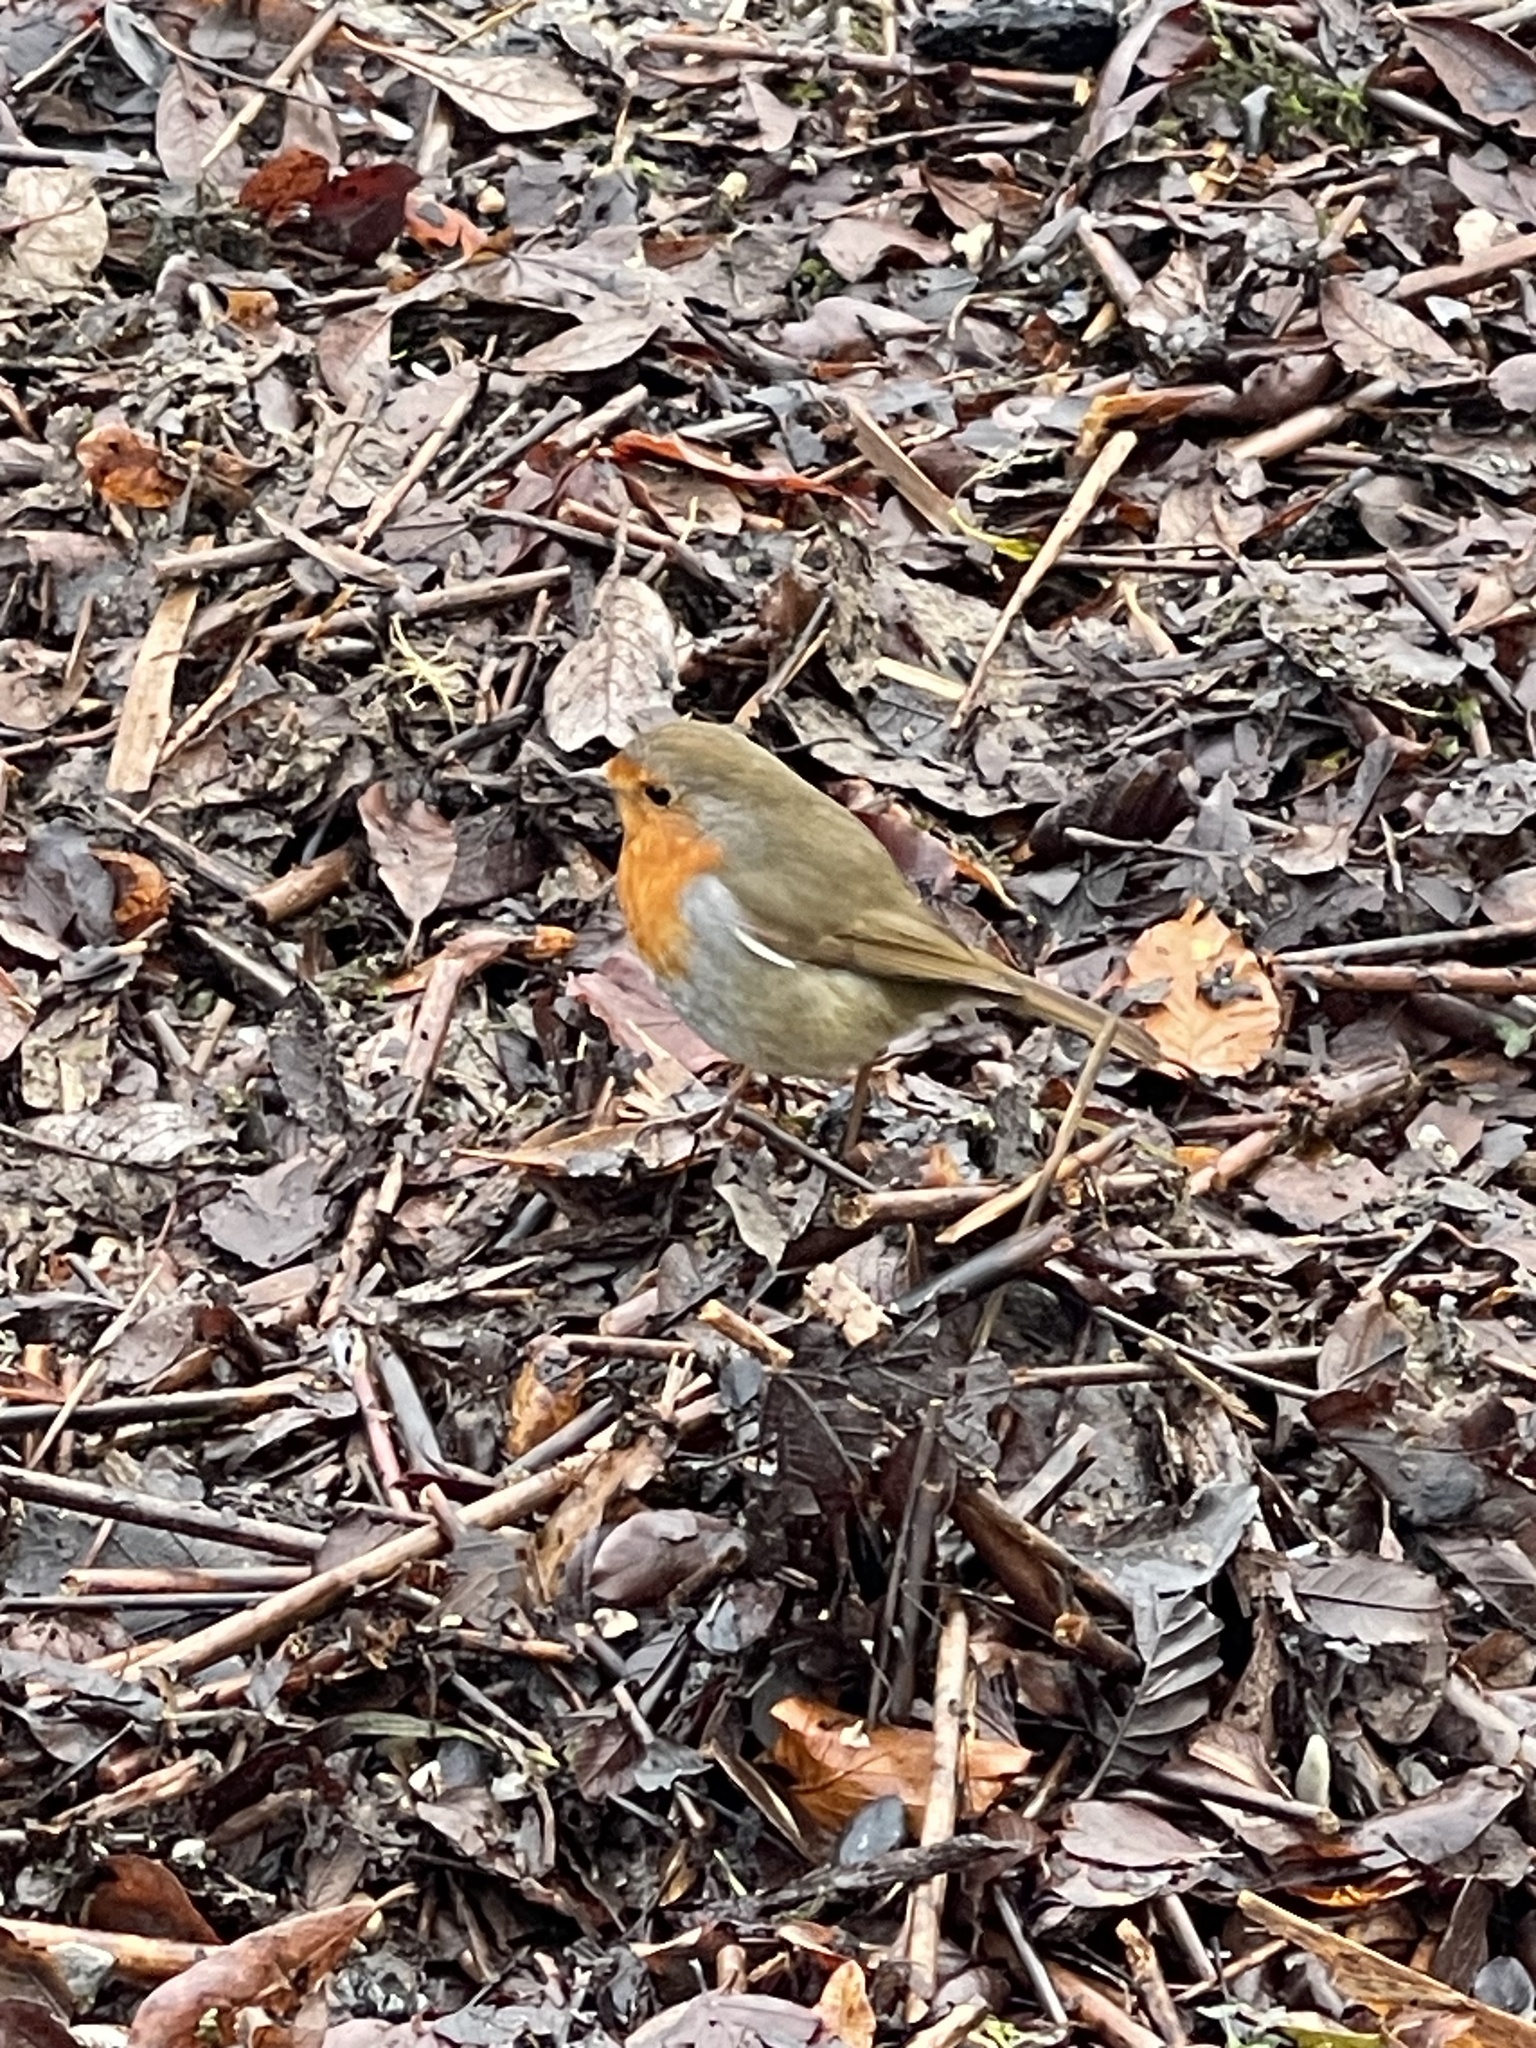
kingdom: Animalia
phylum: Chordata
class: Aves
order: Passeriformes
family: Muscicapidae
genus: Erithacus
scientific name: Erithacus rubecula
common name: European robin
